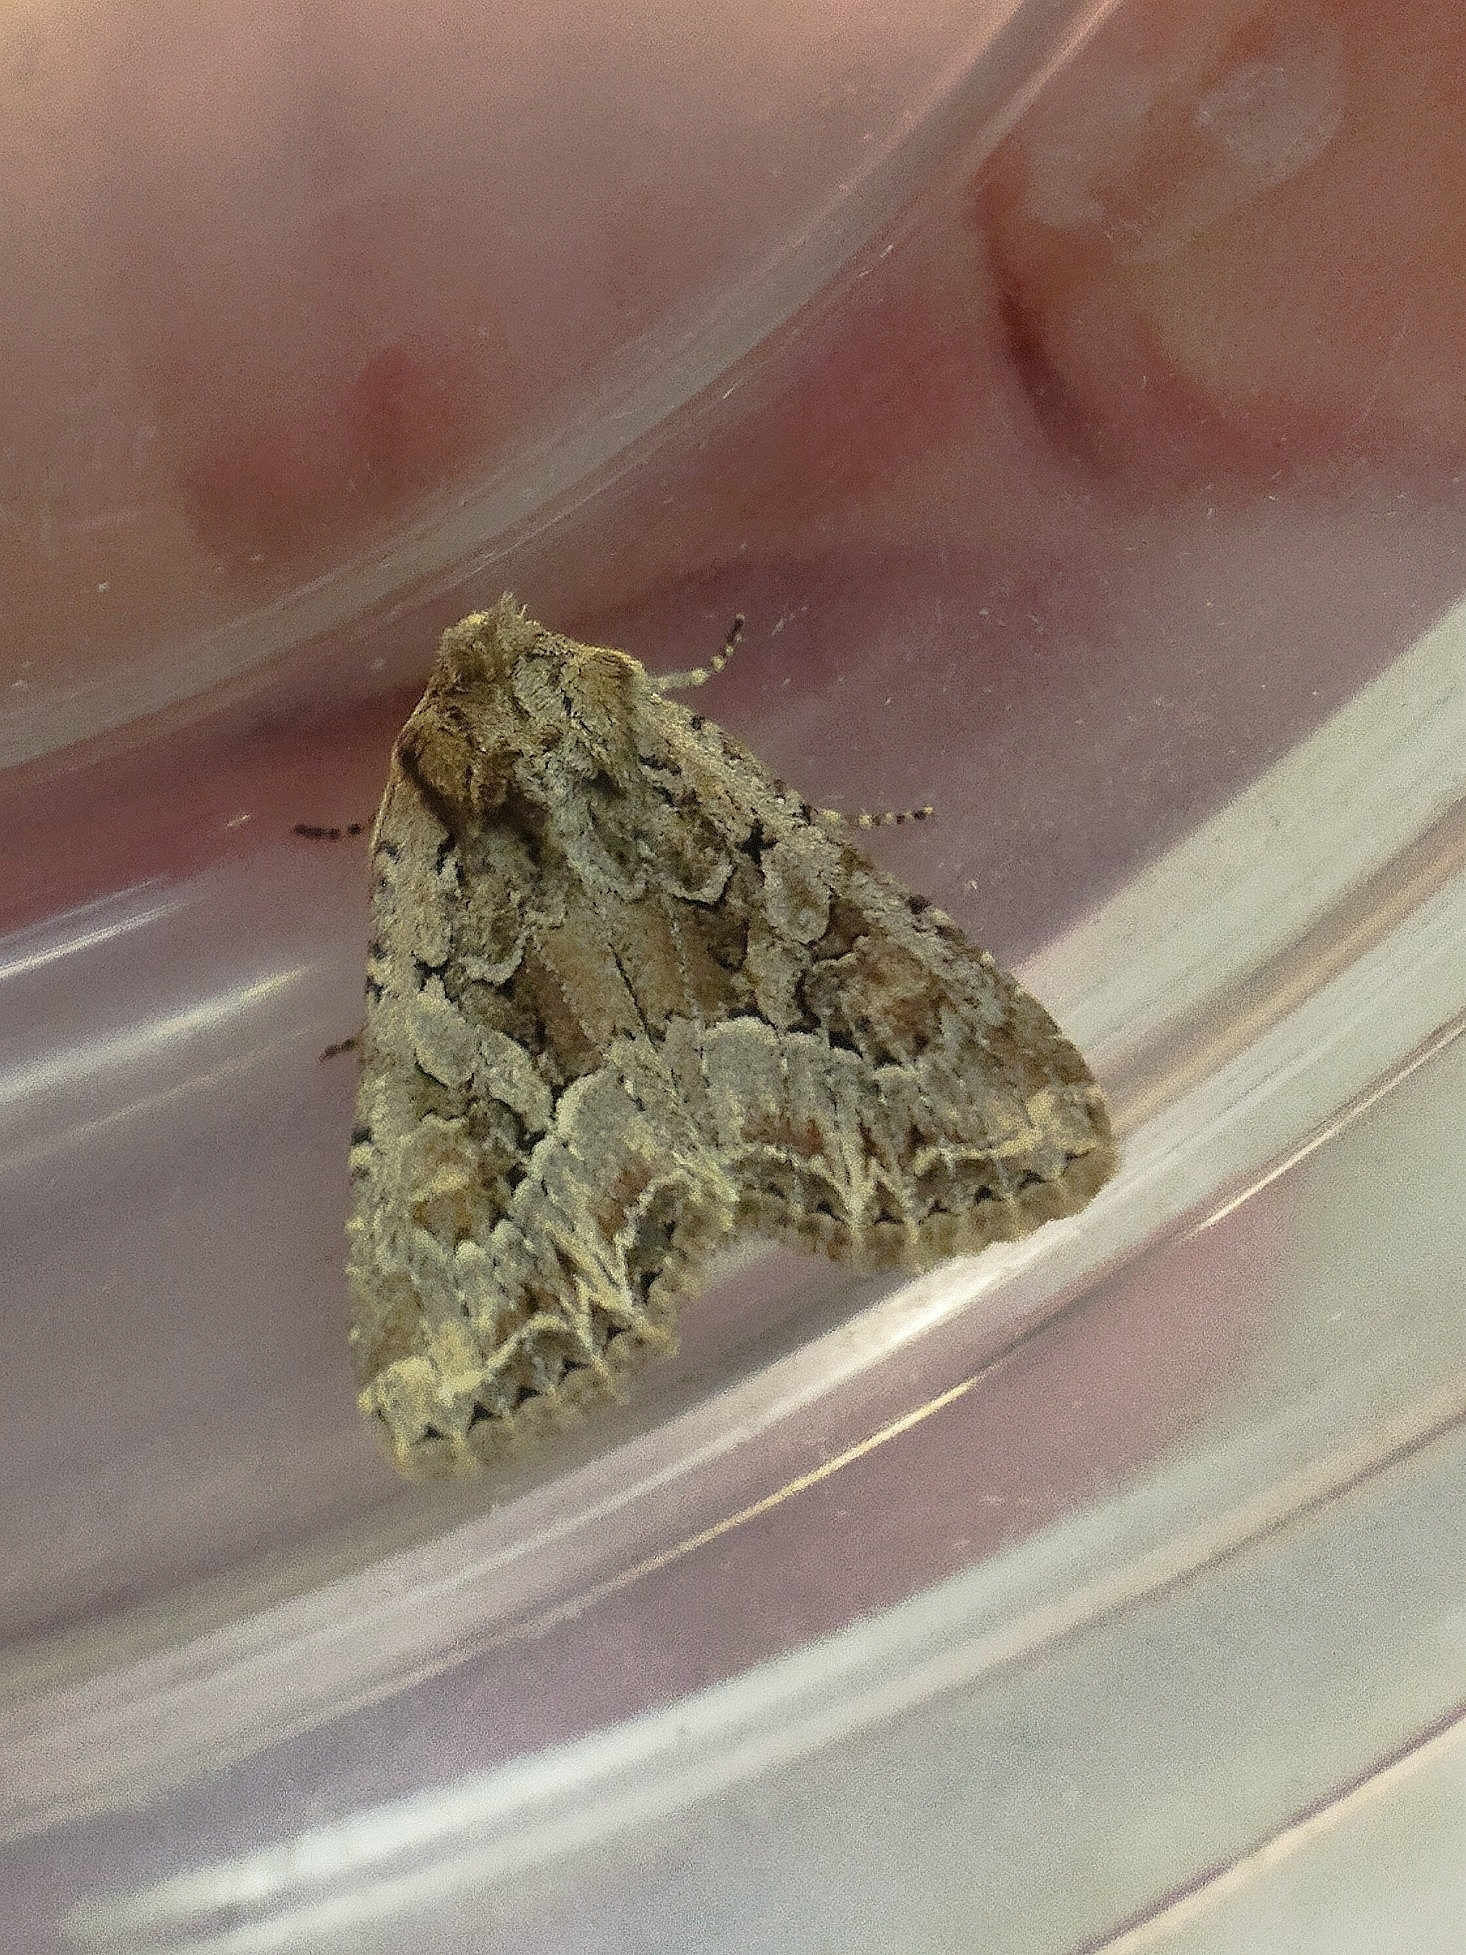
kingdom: Animalia
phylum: Arthropoda
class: Insecta
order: Lepidoptera
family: Noctuidae
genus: Lacanobia
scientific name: Lacanobia blenna
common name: Stranger
